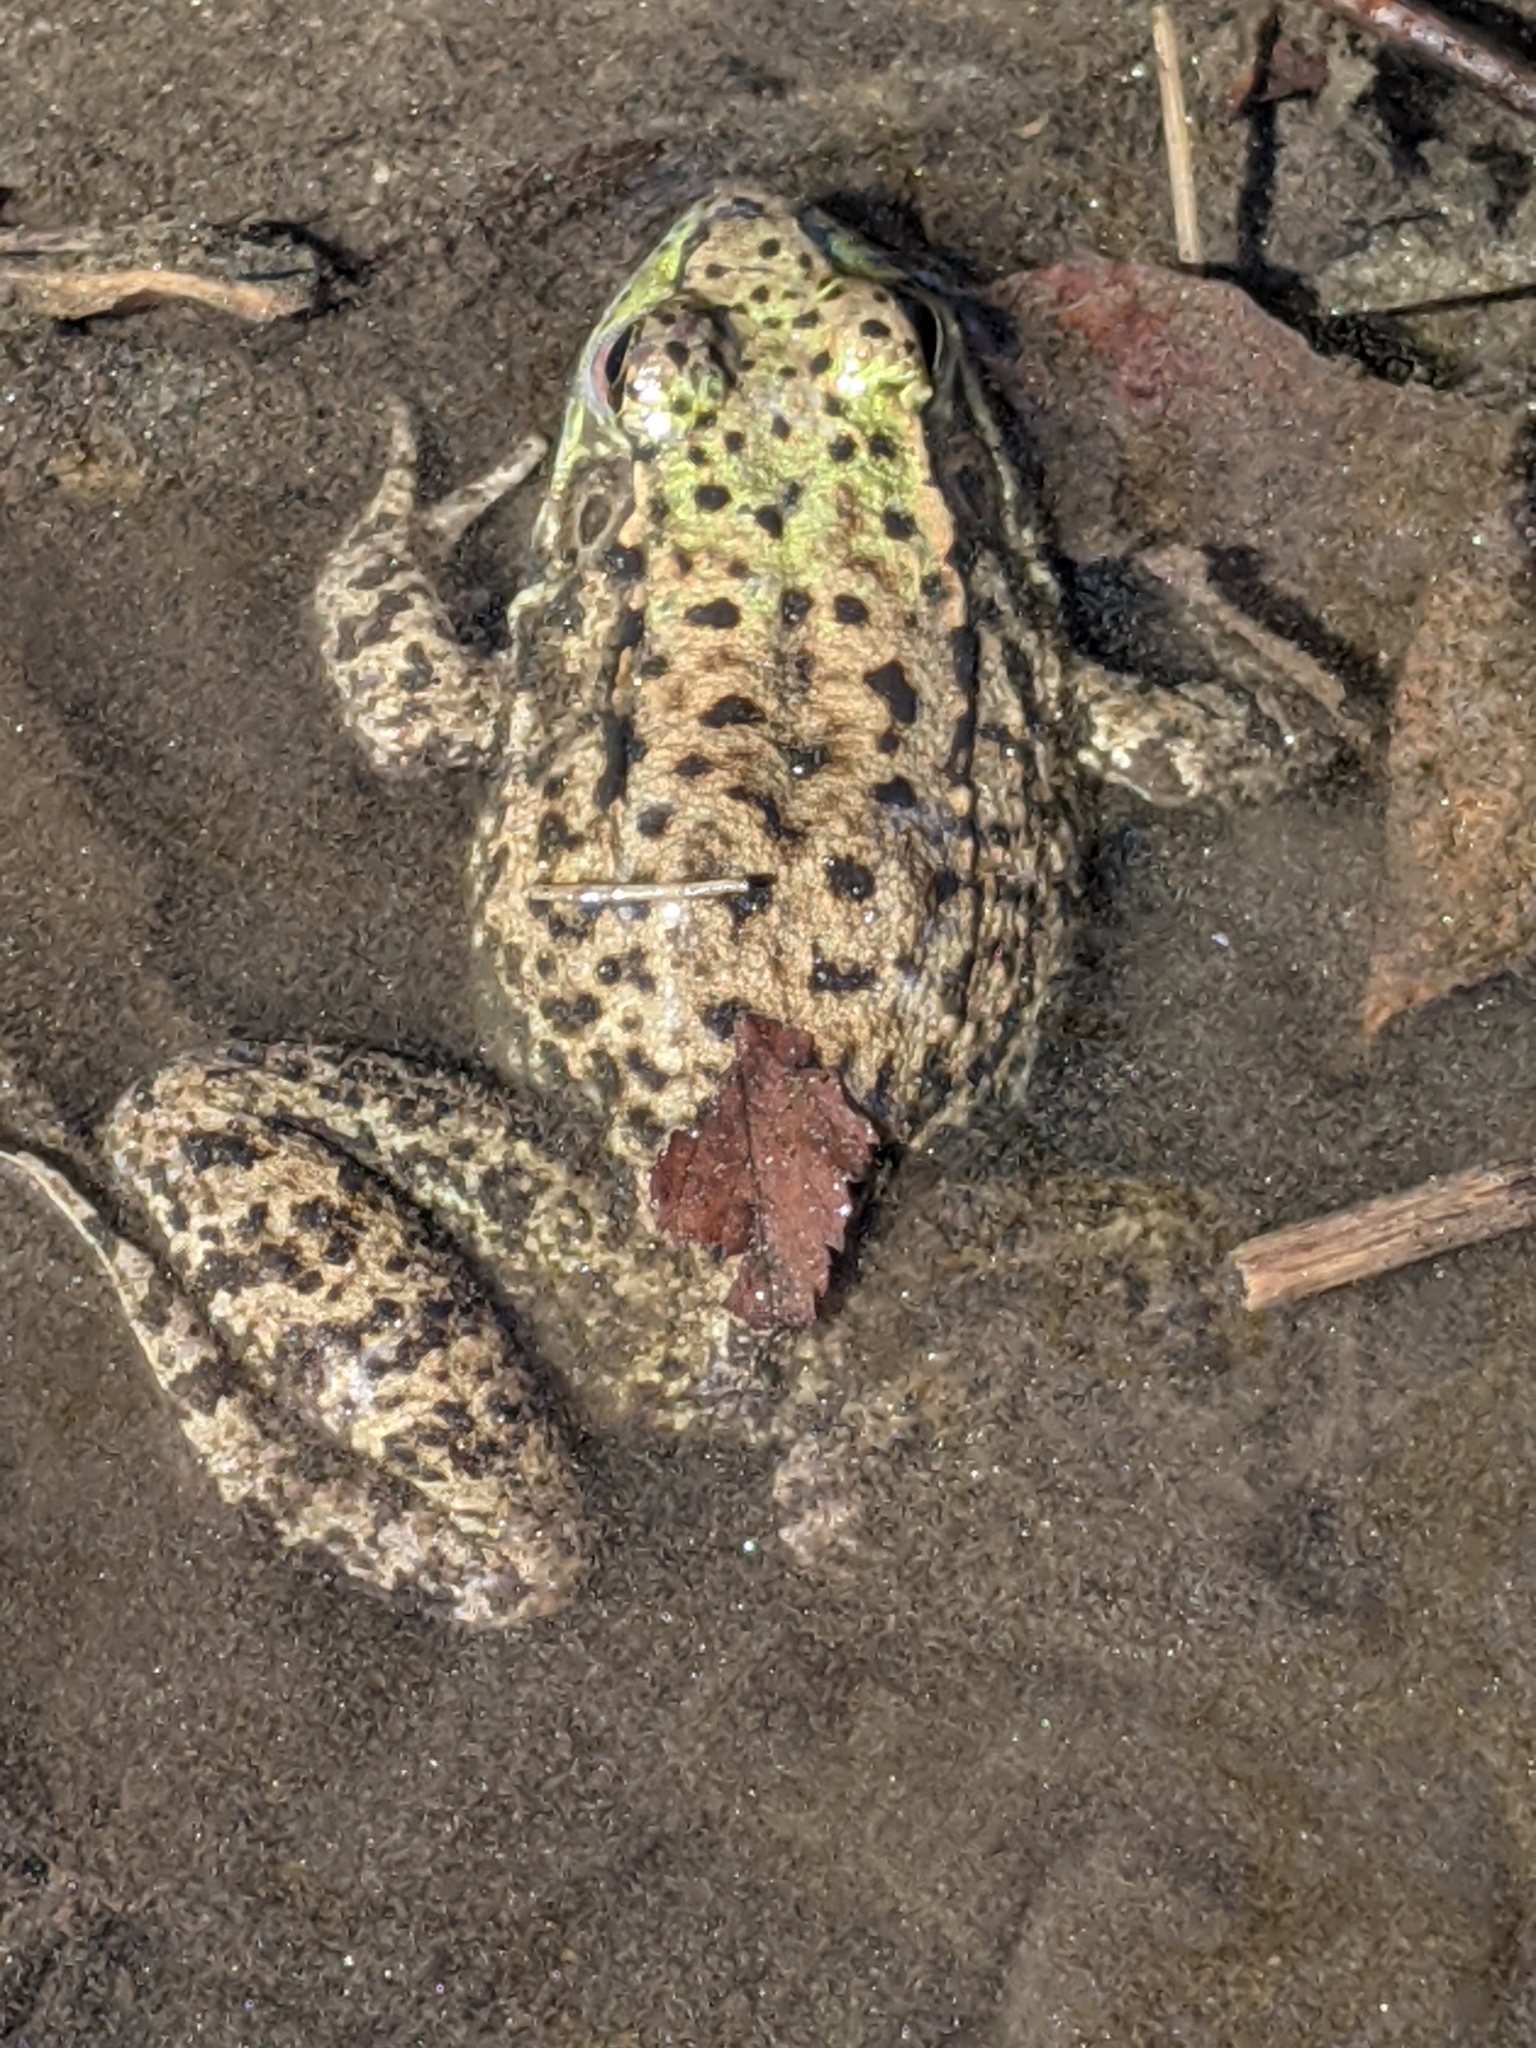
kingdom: Animalia
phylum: Chordata
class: Amphibia
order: Anura
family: Ranidae
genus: Lithobates
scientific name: Lithobates clamitans
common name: Green frog
